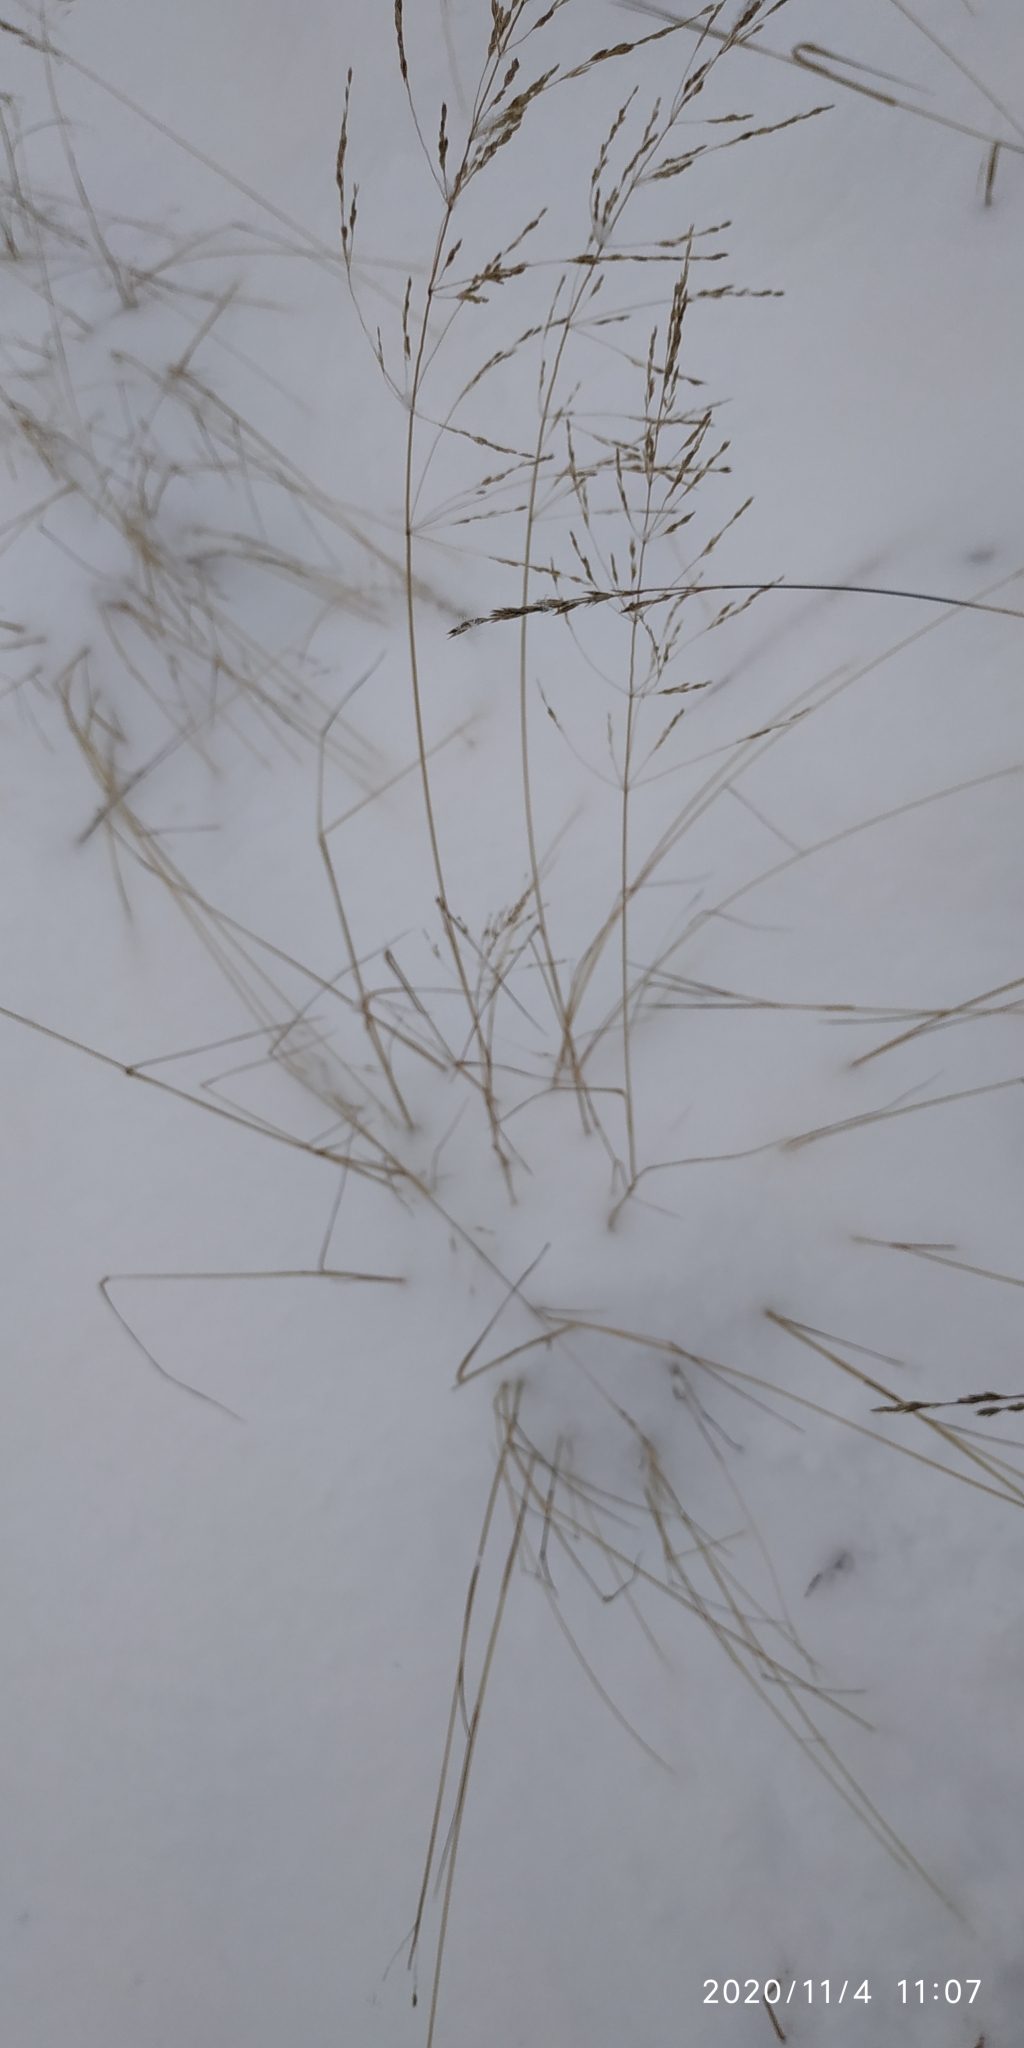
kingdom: Plantae
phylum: Tracheophyta
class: Liliopsida
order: Poales
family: Poaceae
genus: Deschampsia
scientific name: Deschampsia cespitosa
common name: Tufted hair-grass
